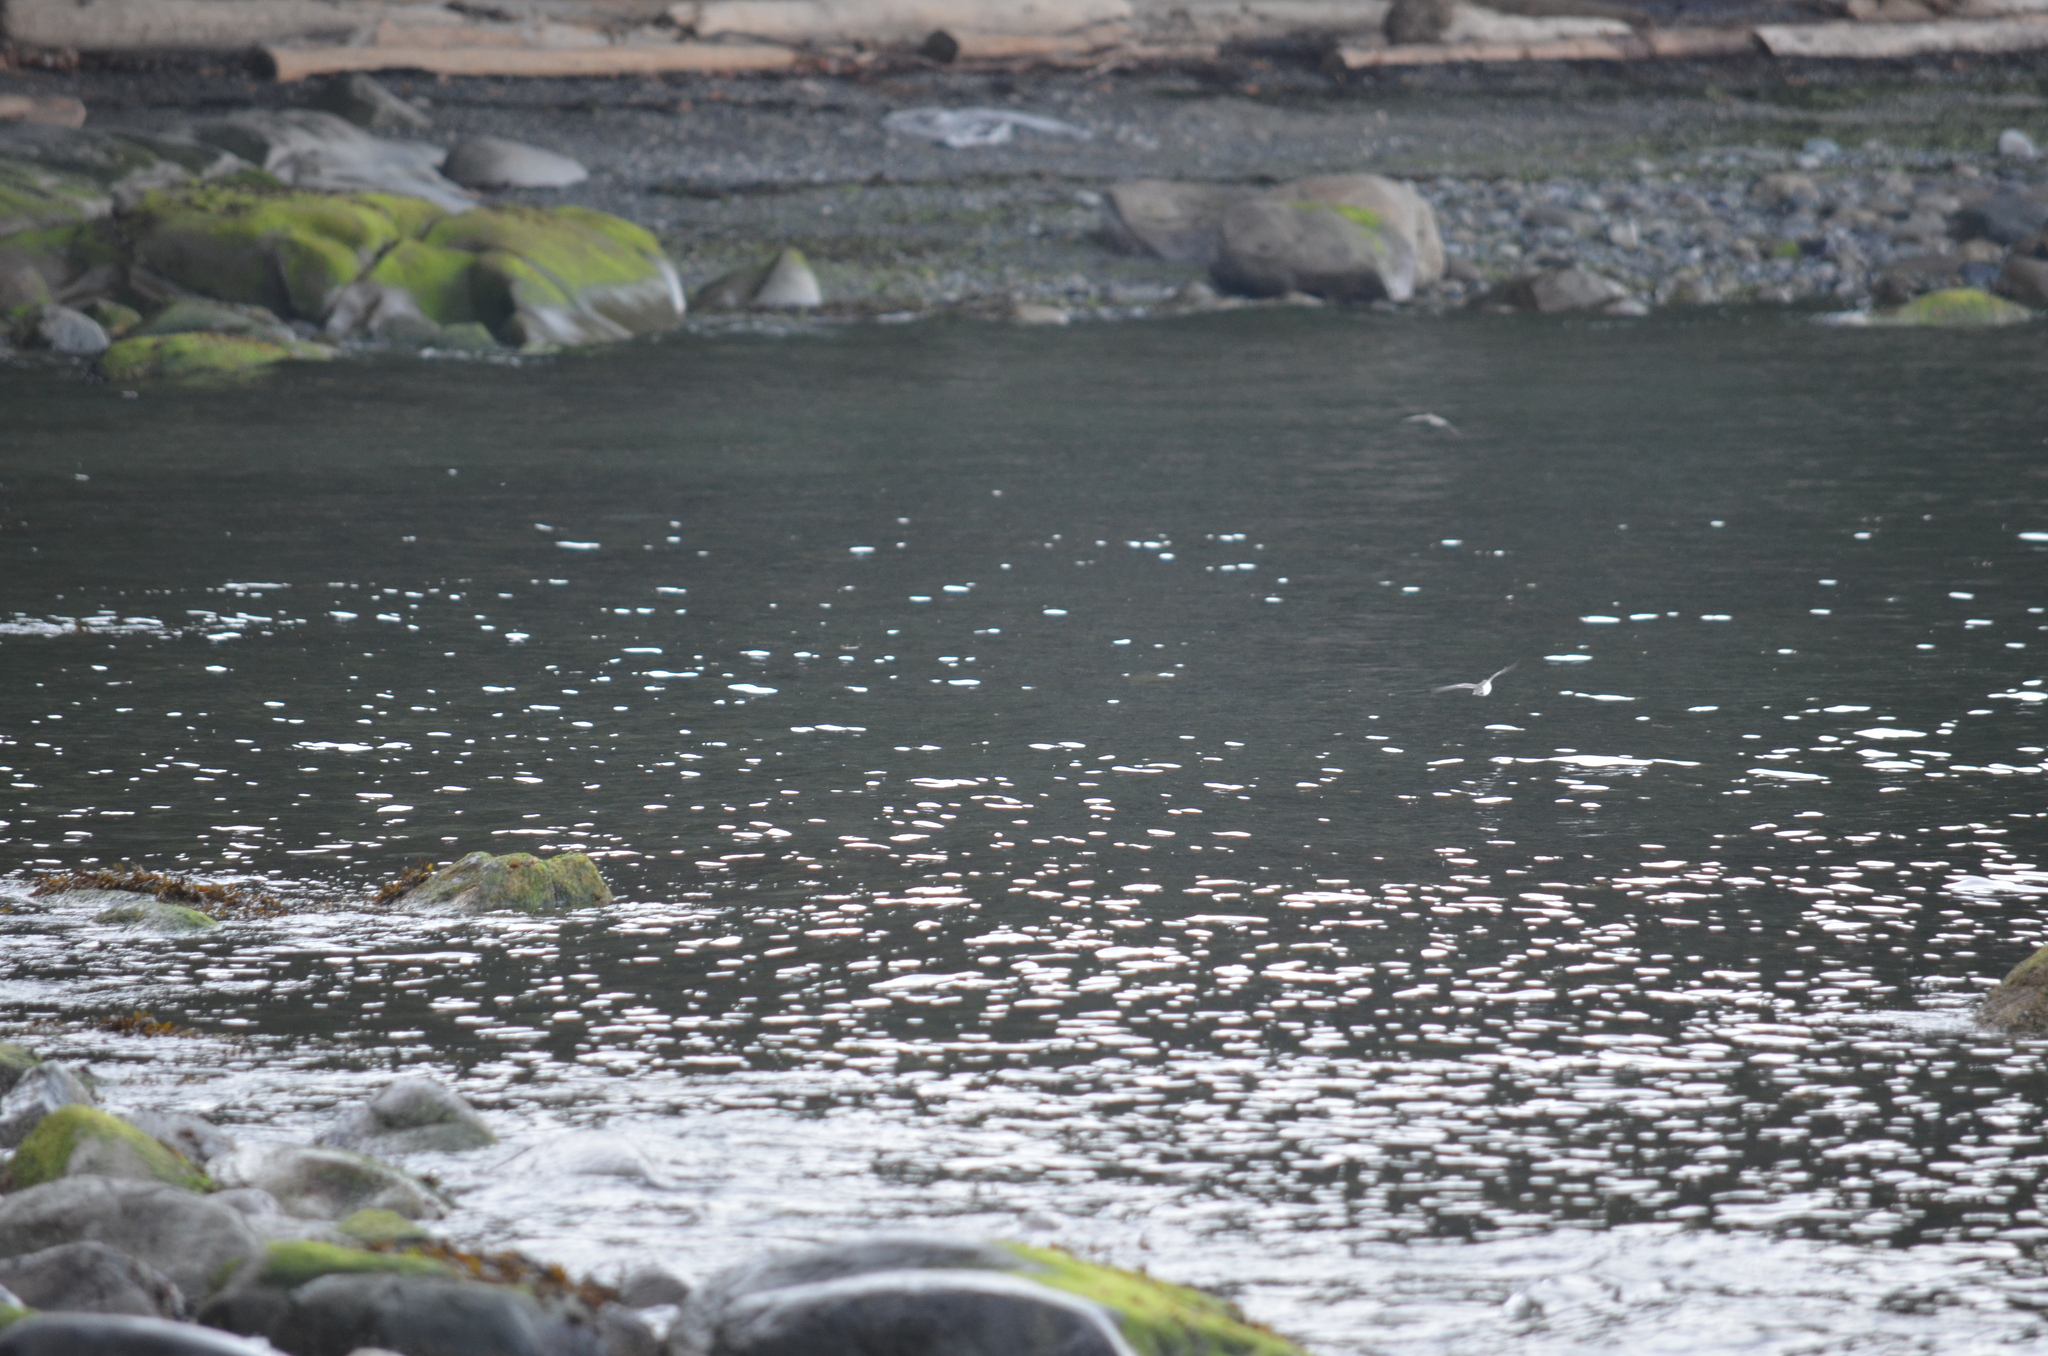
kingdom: Animalia
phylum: Chordata
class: Aves
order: Charadriiformes
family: Scolopacidae
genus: Actitis
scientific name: Actitis macularius
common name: Spotted sandpiper
